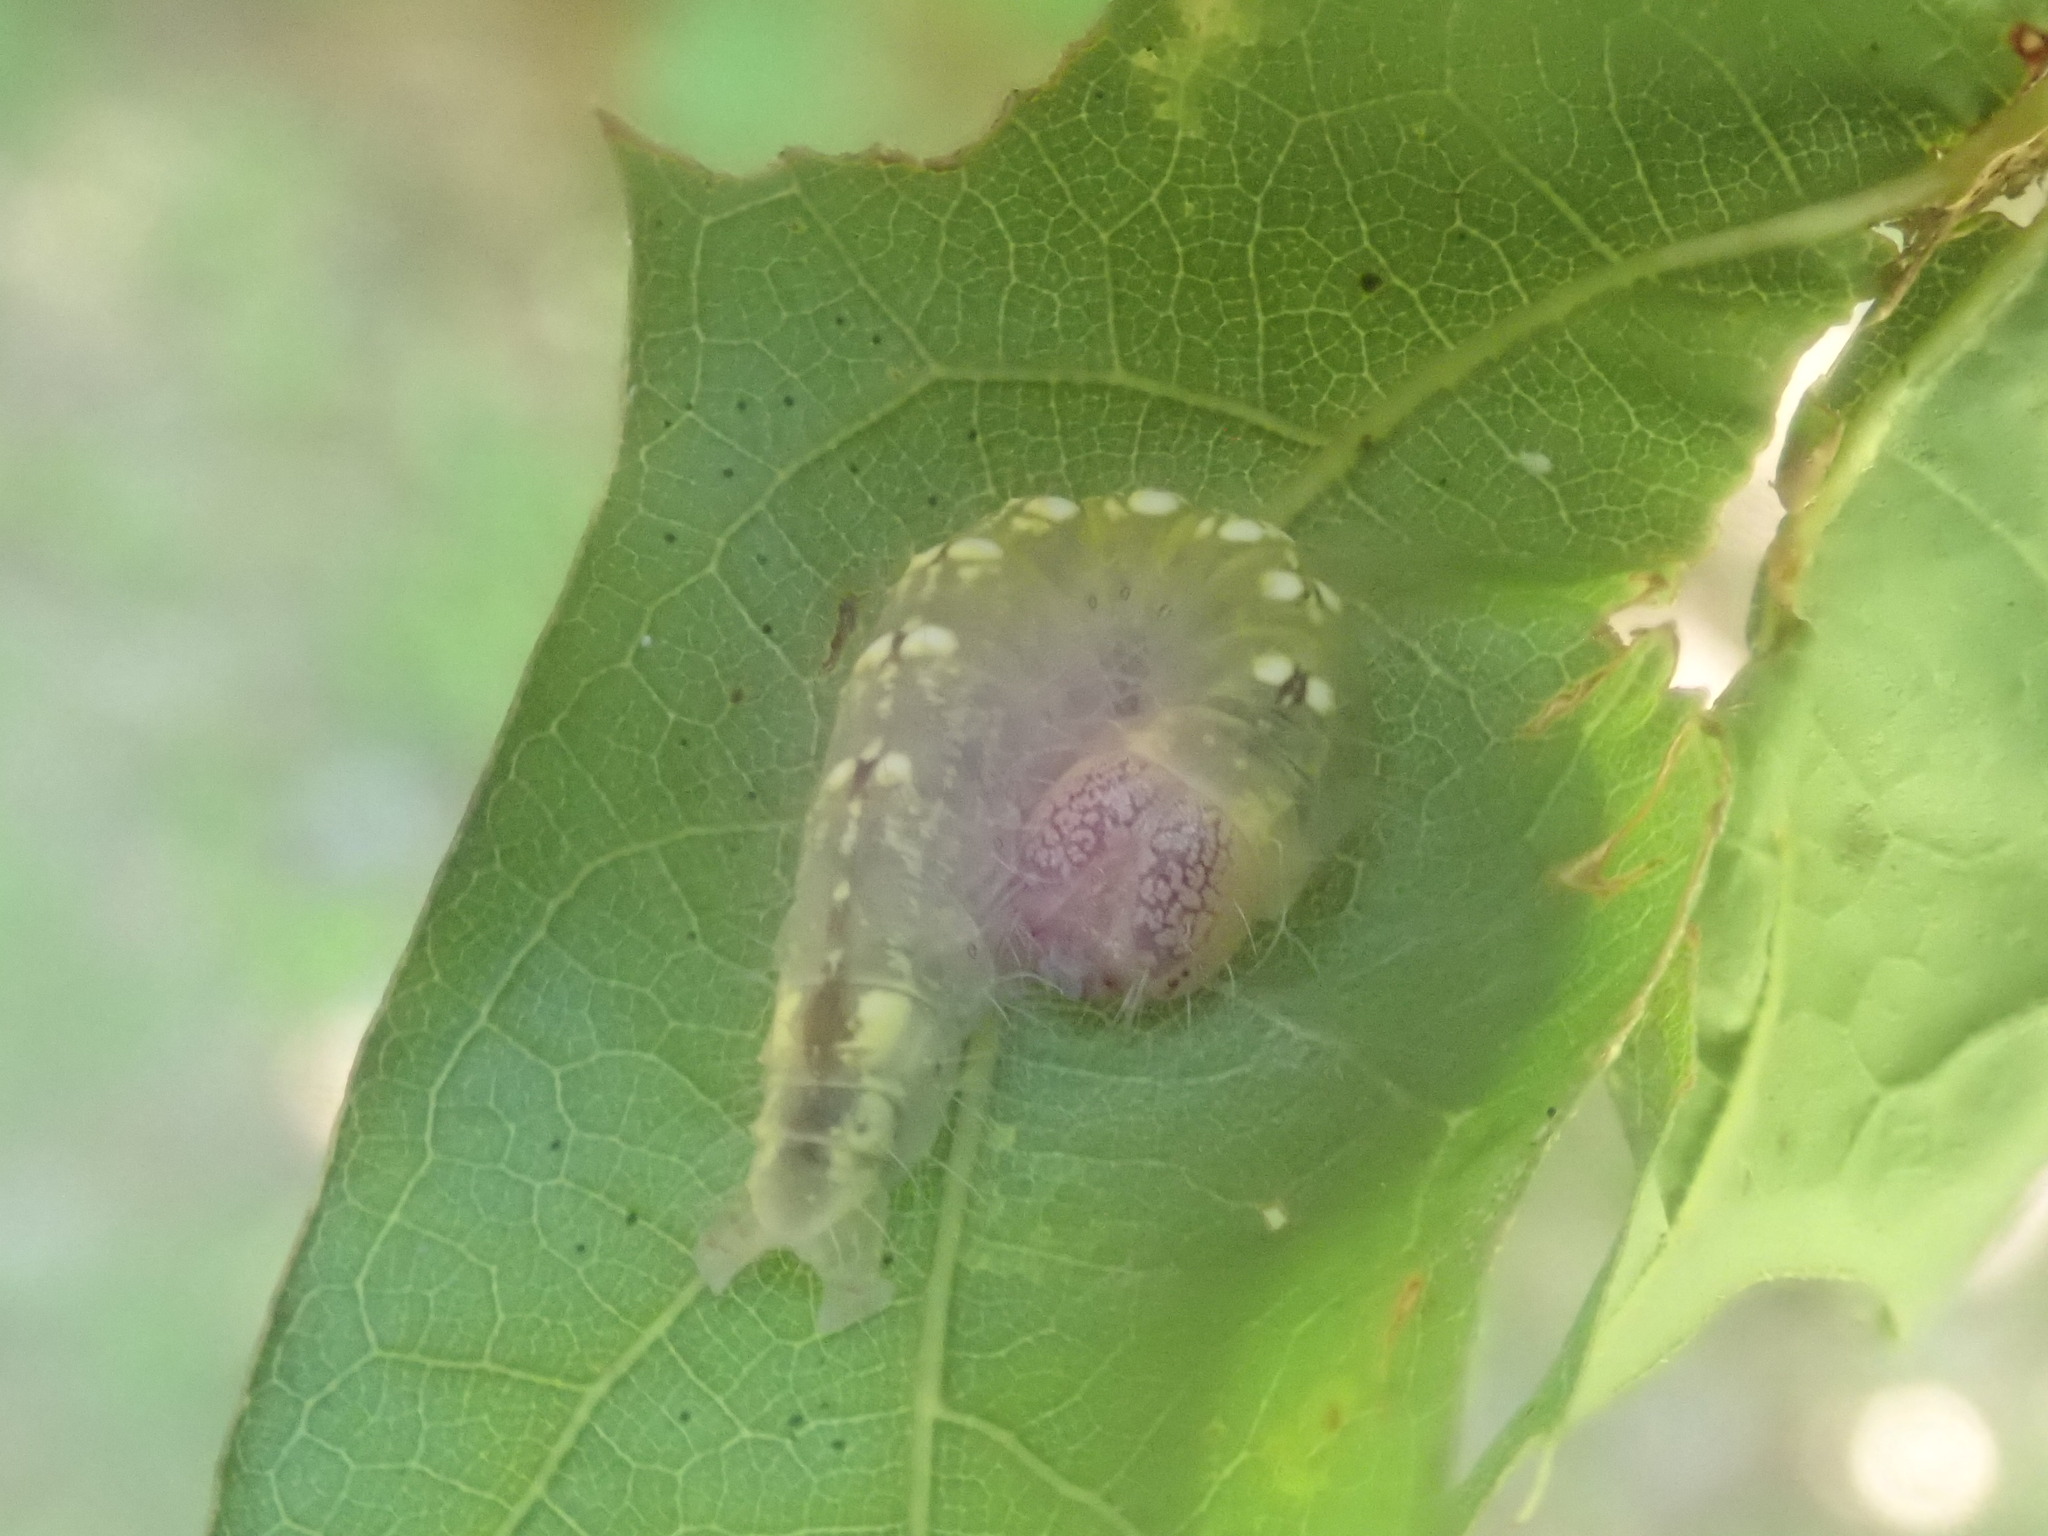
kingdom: Animalia
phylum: Arthropoda
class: Insecta
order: Lepidoptera
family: Noctuidae
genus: Acronicta
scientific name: Acronicta increta
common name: Eclipsed oak dagger
